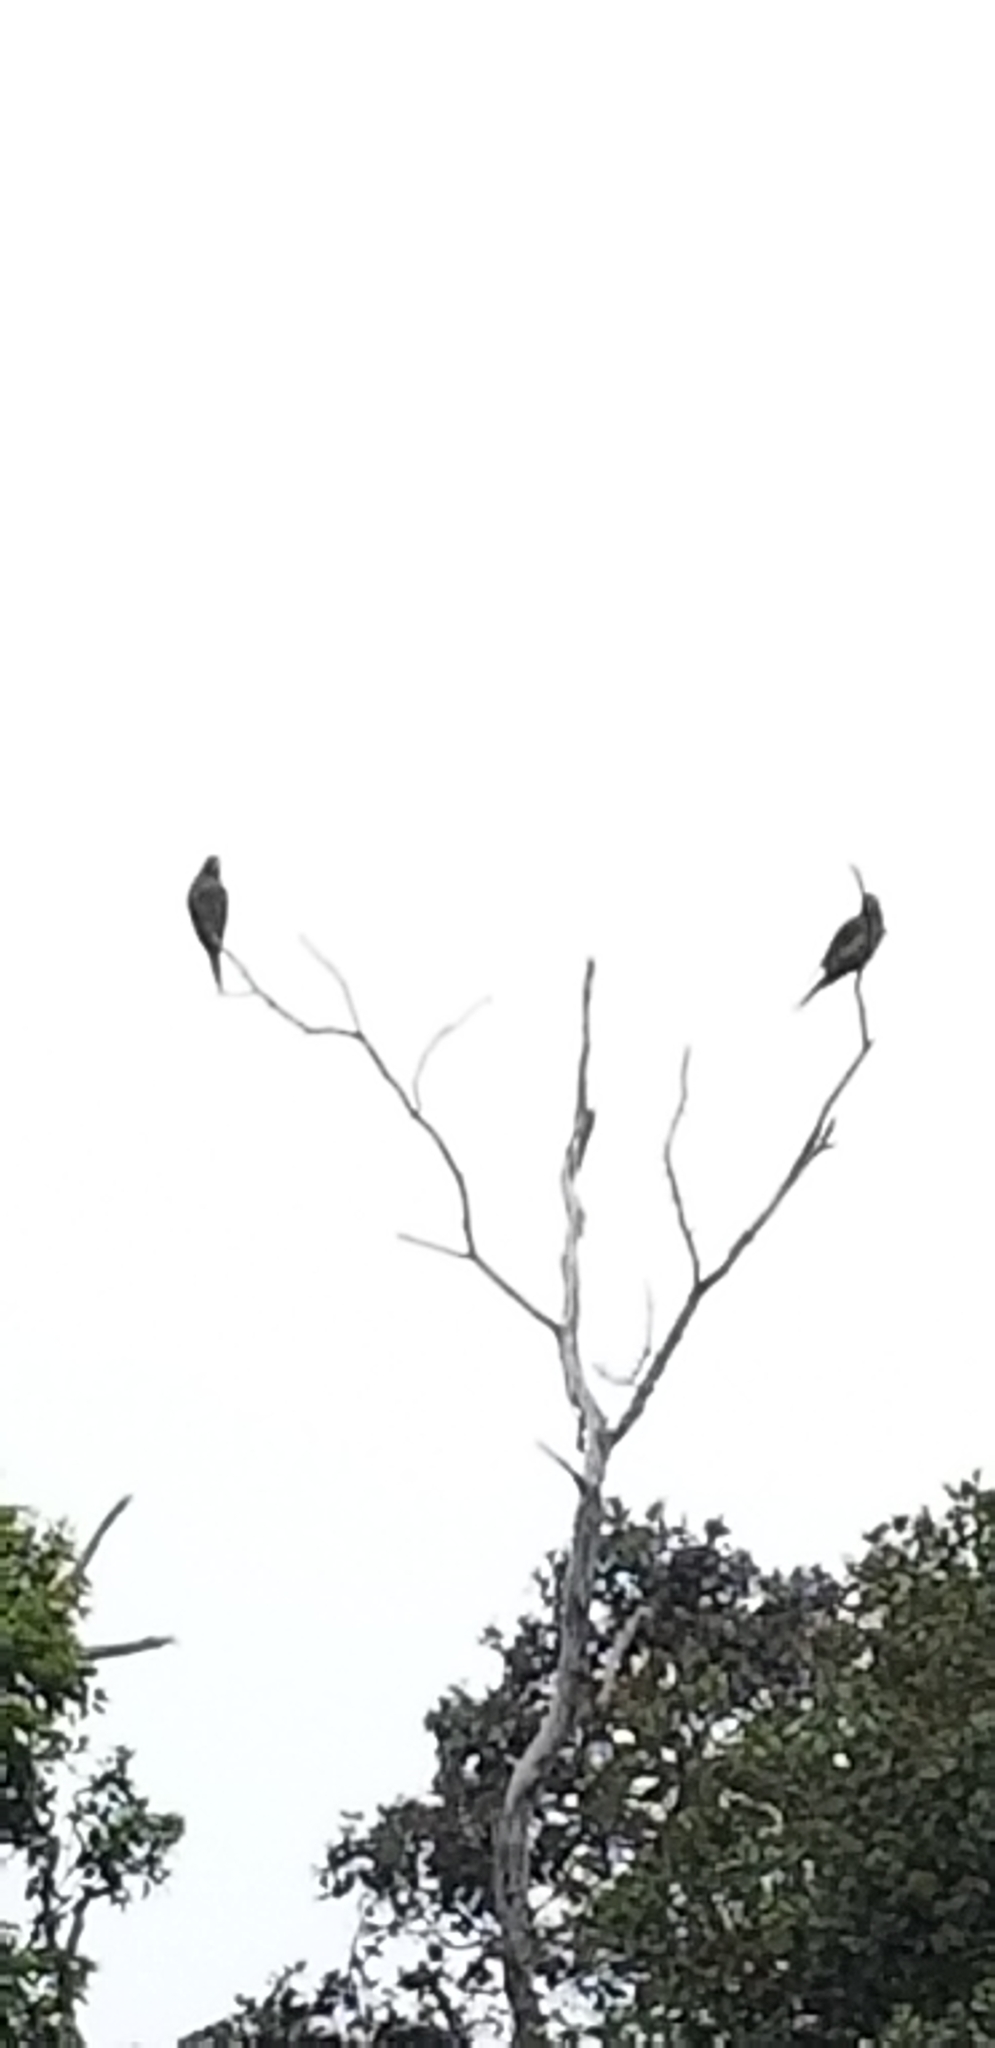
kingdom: Animalia
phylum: Chordata
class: Aves
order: Psittaciformes
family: Psittacidae
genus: Aratinga
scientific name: Aratinga erythrogenys
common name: Red-masked parakeet
